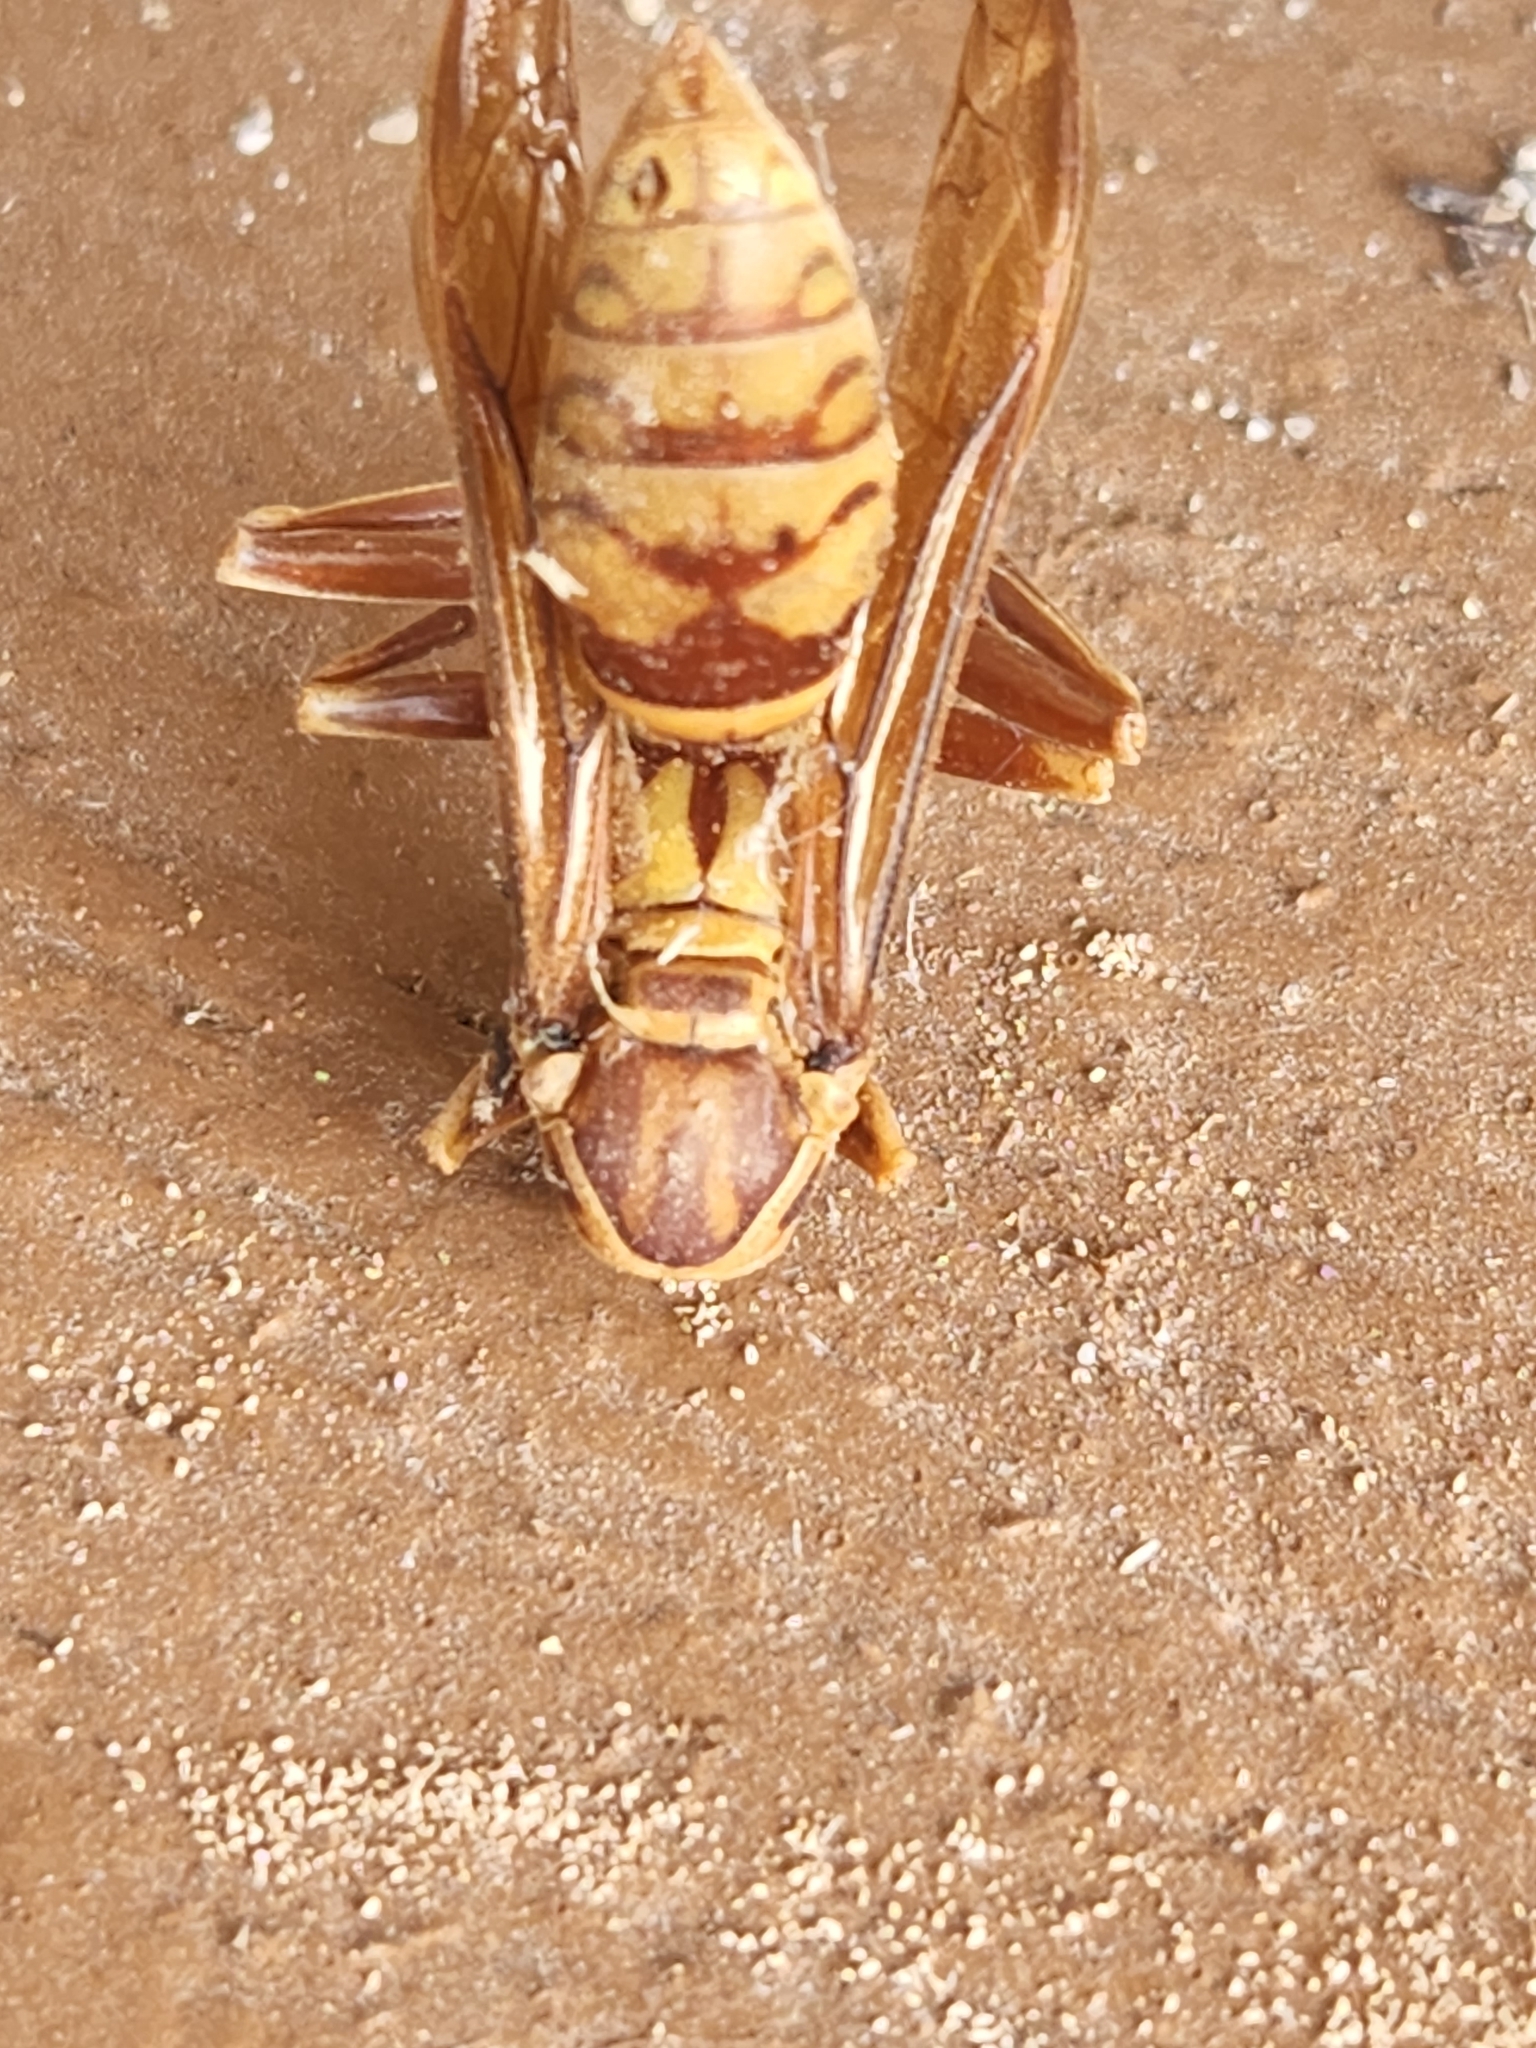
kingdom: Animalia
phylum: Arthropoda
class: Insecta
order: Hymenoptera
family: Eumenidae
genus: Polistes
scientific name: Polistes apachus
